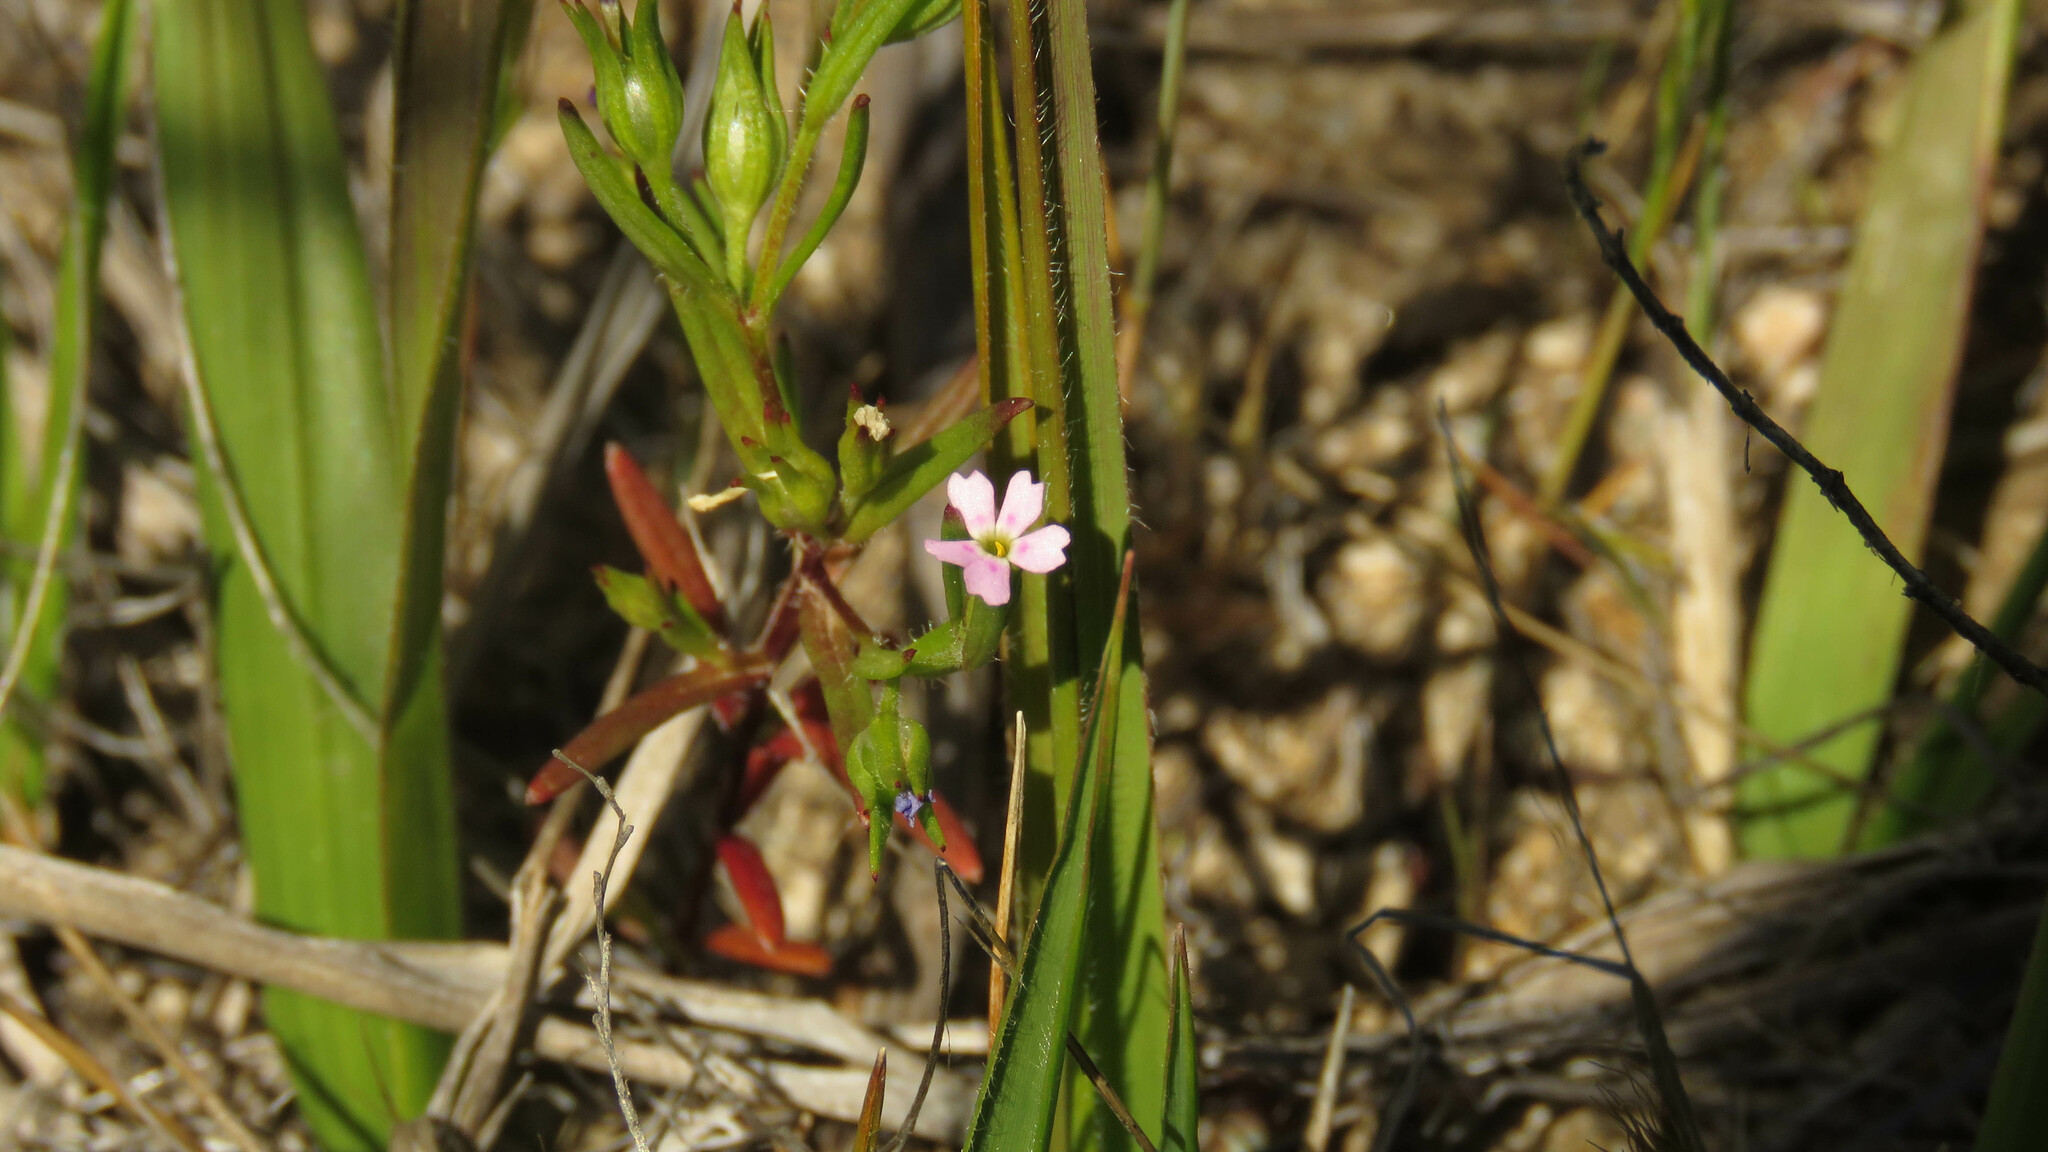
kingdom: Plantae
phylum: Tracheophyta
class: Magnoliopsida
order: Ericales
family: Polemoniaceae
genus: Phlox
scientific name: Phlox gracilis
